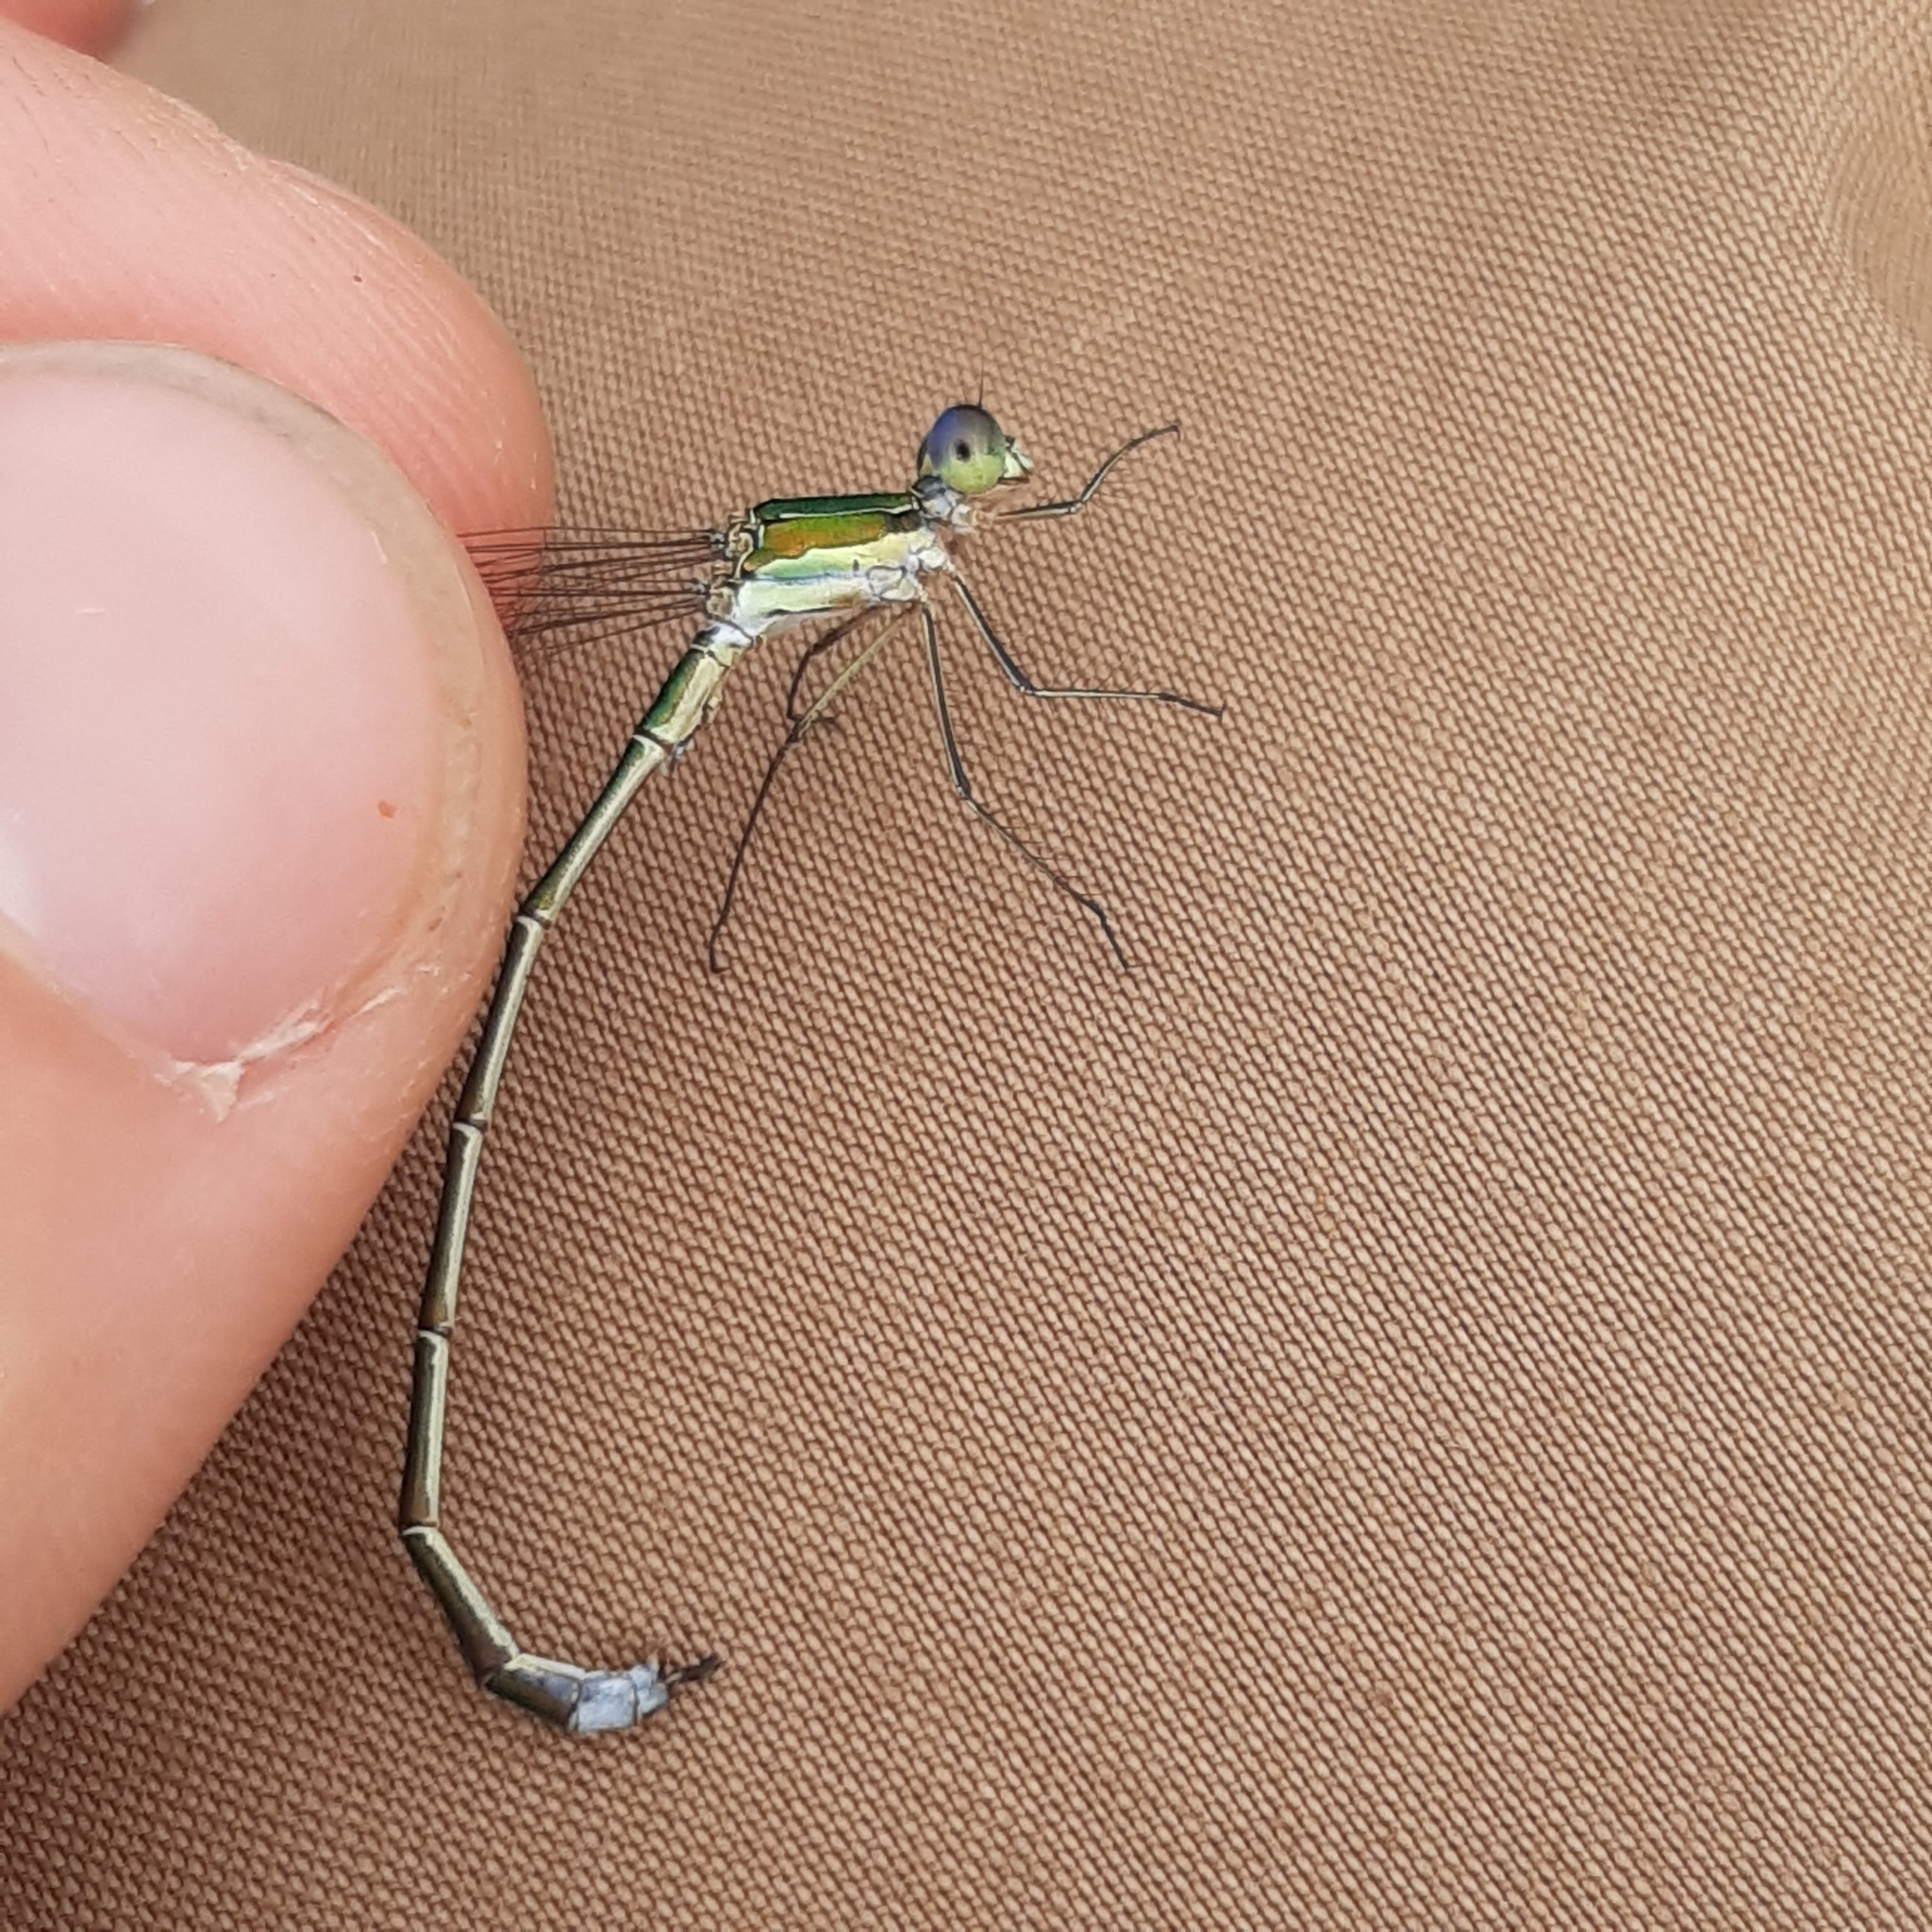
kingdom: Animalia
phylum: Arthropoda
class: Insecta
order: Odonata
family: Lestidae
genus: Lestes
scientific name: Lestes virens
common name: Small emerald spreadwing
